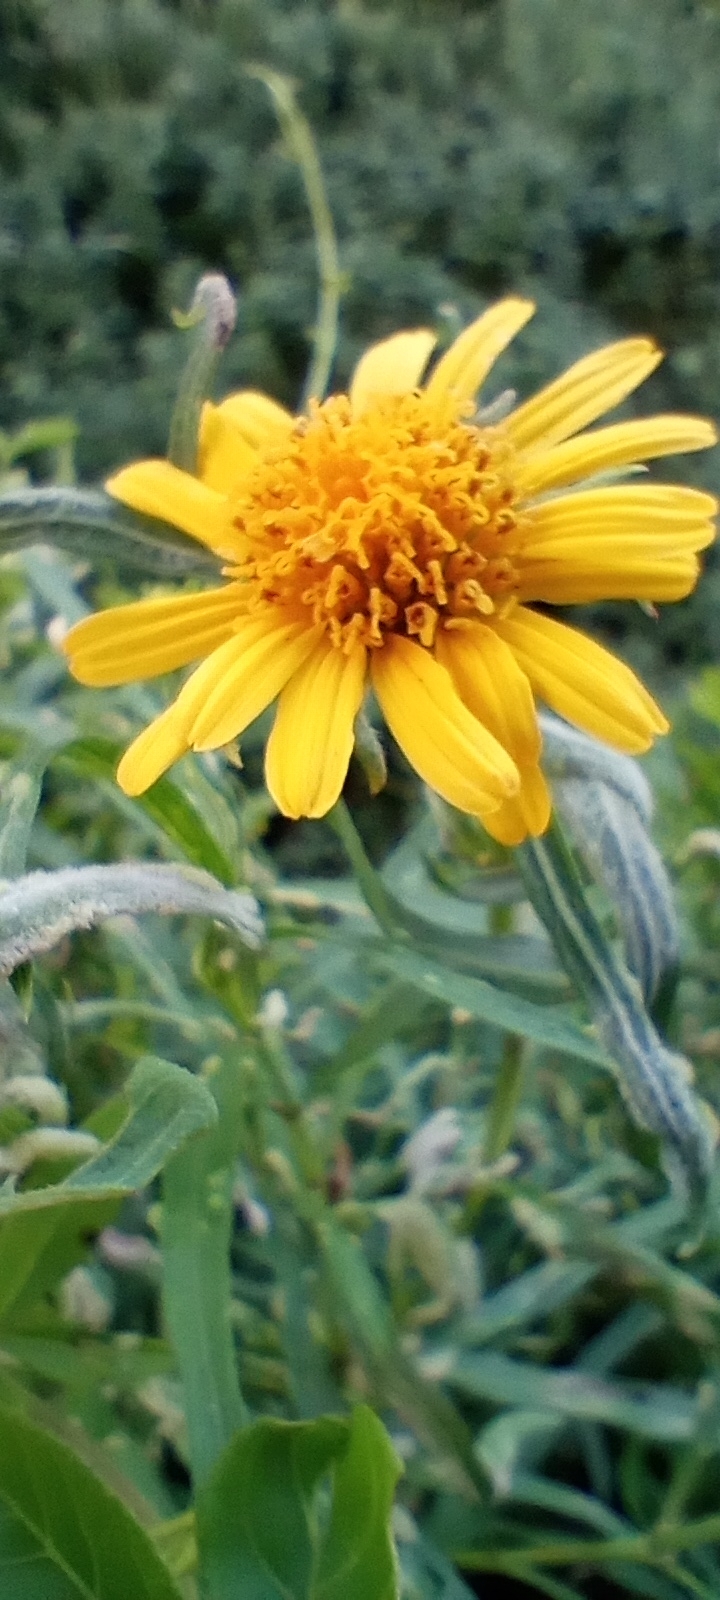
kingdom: Plantae
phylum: Tracheophyta
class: Magnoliopsida
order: Asterales
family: Asteraceae
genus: Pascalia
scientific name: Pascalia glauca
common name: Beach creeping oxeye
